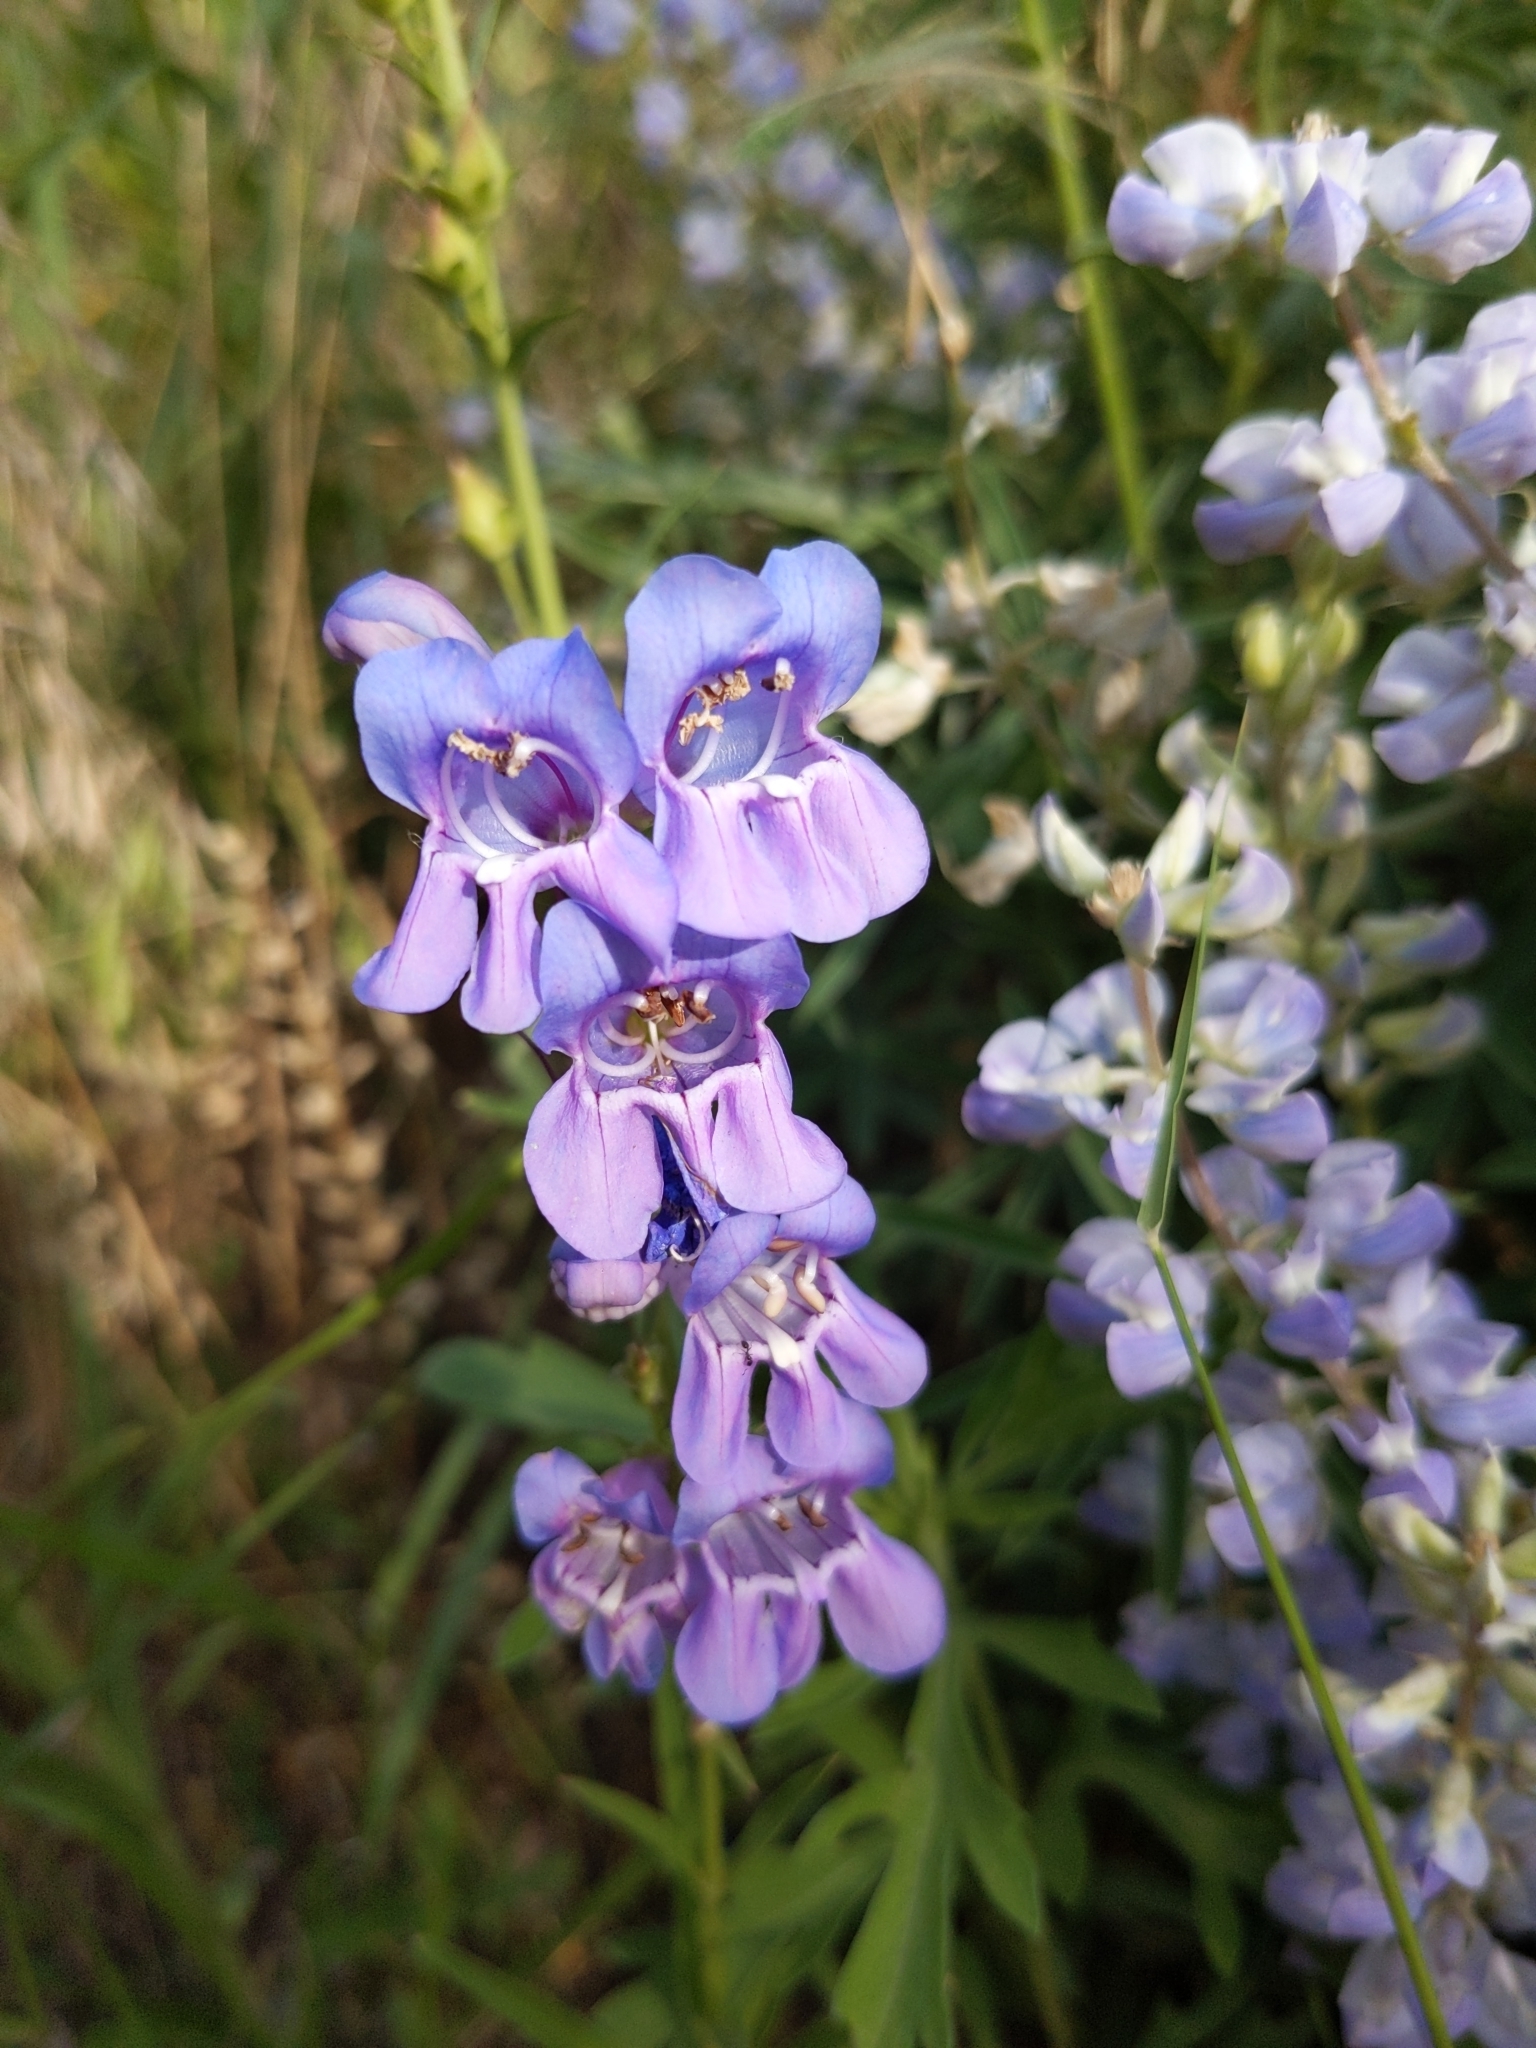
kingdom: Plantae
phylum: Tracheophyta
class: Magnoliopsida
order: Lamiales
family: Plantaginaceae
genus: Penstemon
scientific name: Penstemon virgatus
